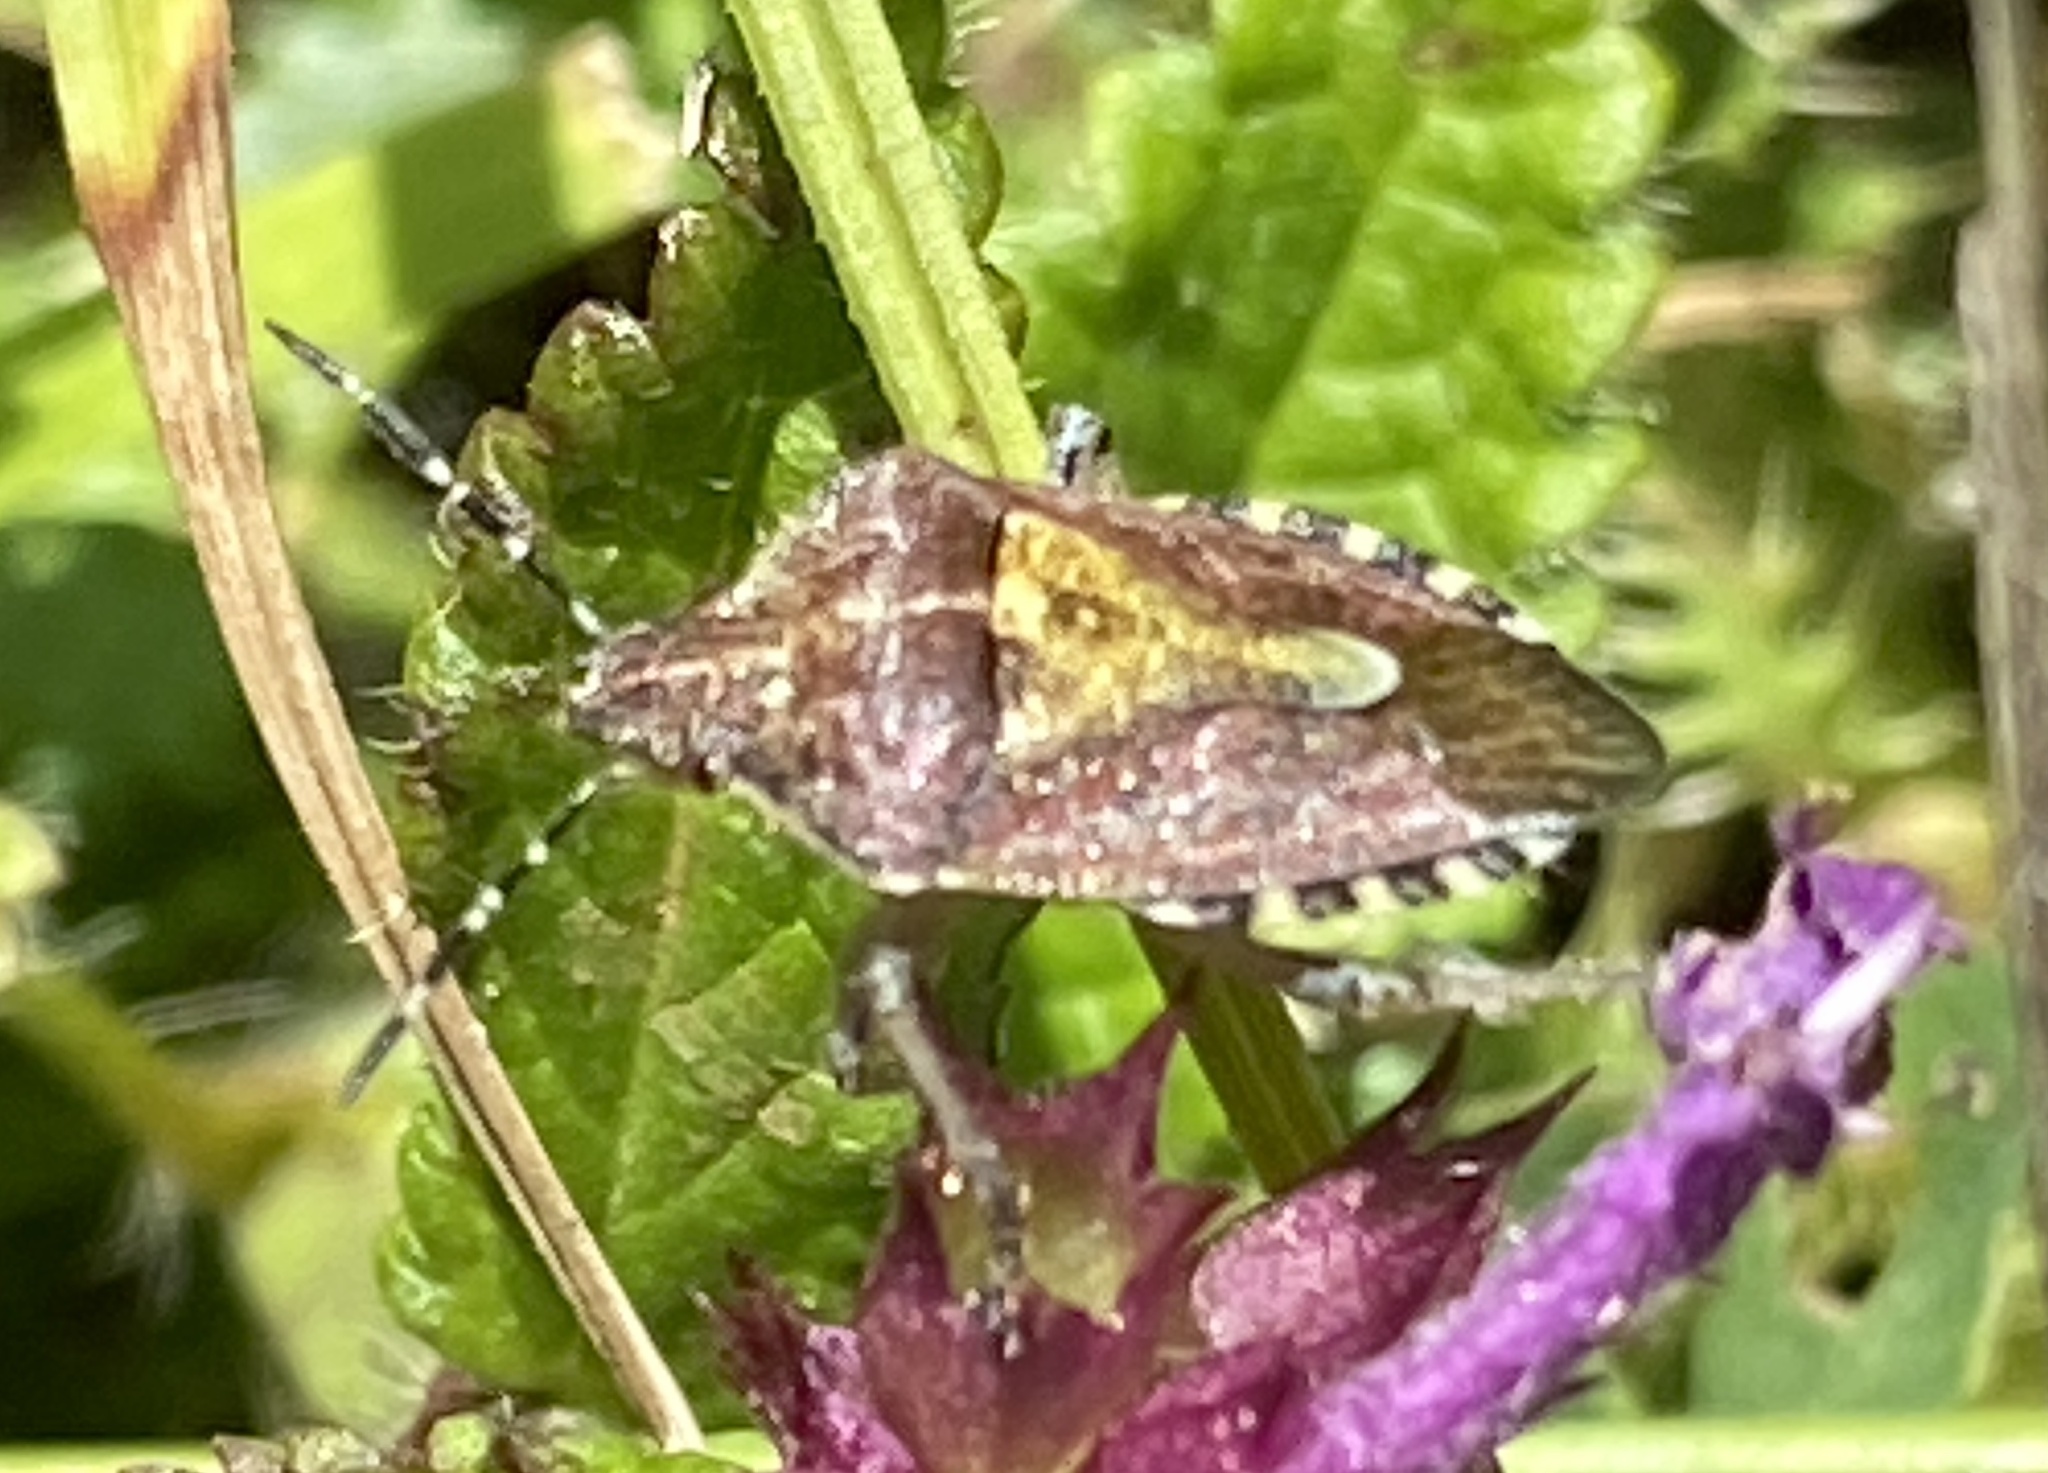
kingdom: Animalia
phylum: Arthropoda
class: Insecta
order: Hemiptera
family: Pentatomidae
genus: Dolycoris
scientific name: Dolycoris baccarum
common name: Sloe bug
